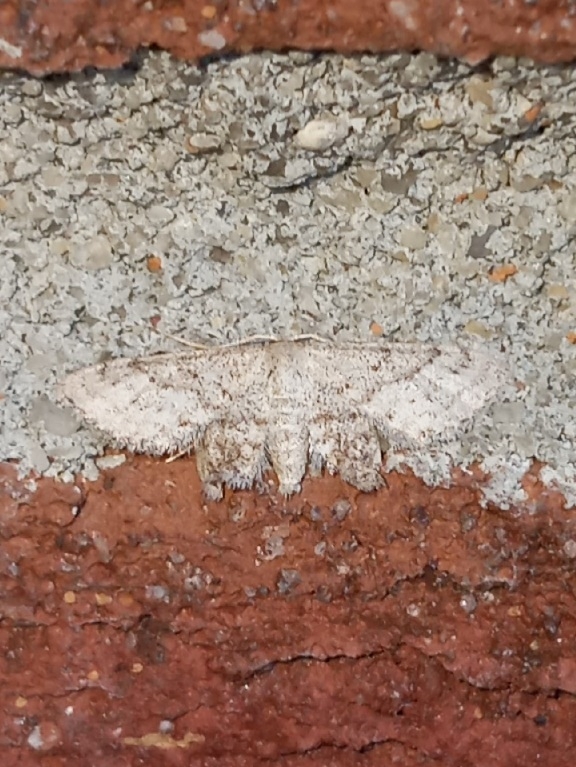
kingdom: Animalia
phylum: Arthropoda
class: Insecta
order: Lepidoptera
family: Geometridae
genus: Lobocleta
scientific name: Lobocleta ossularia
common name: Drab brown wave
